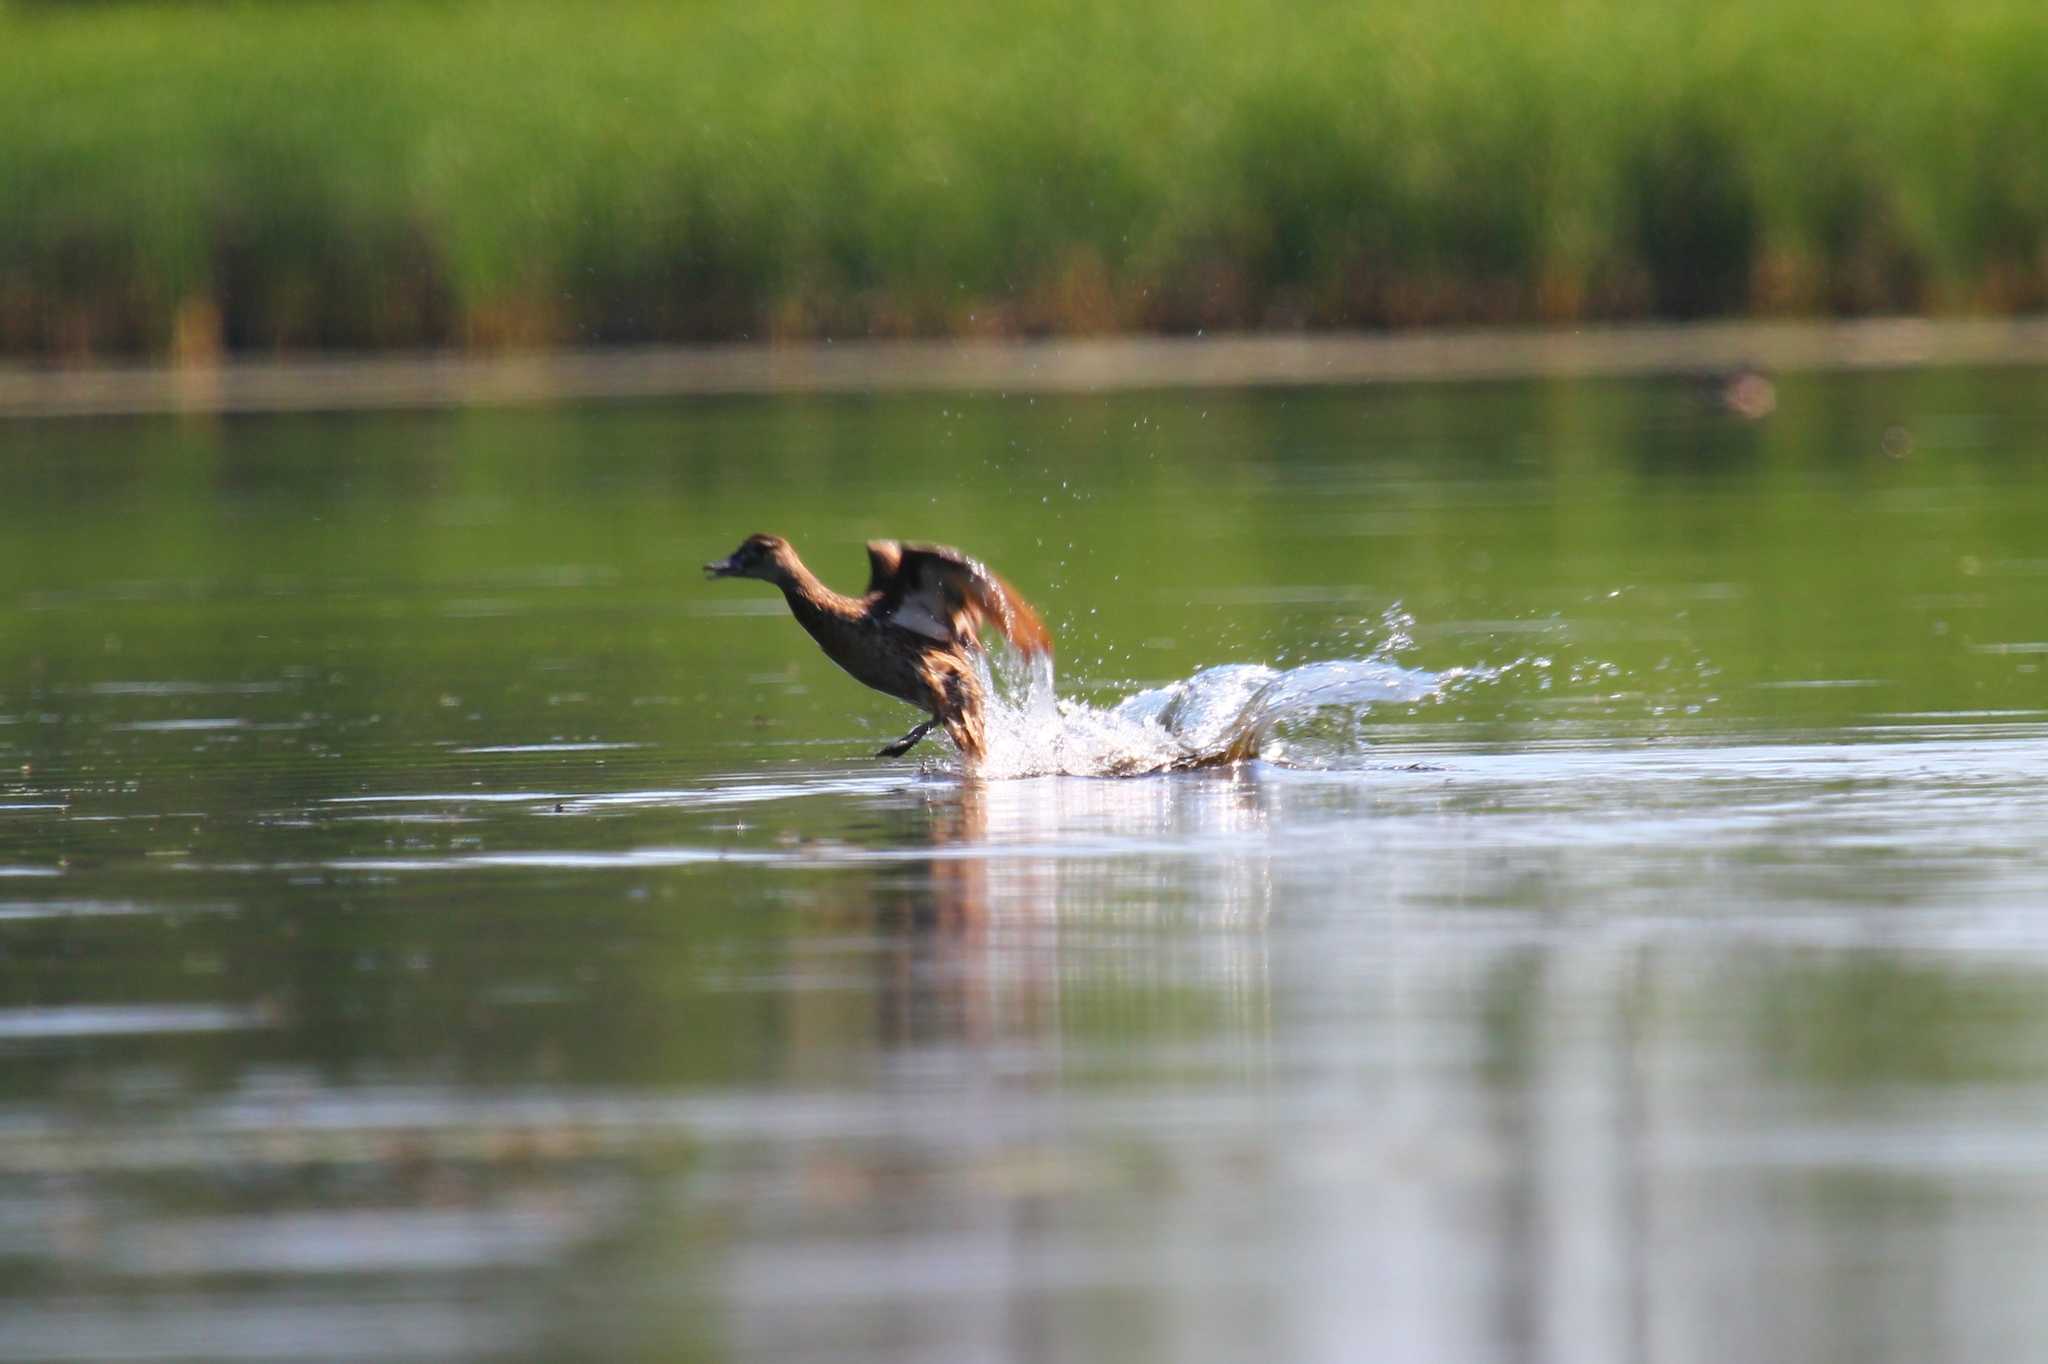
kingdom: Animalia
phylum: Chordata
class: Aves
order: Anseriformes
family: Anatidae
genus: Spatula
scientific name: Spatula querquedula
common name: Garganey
